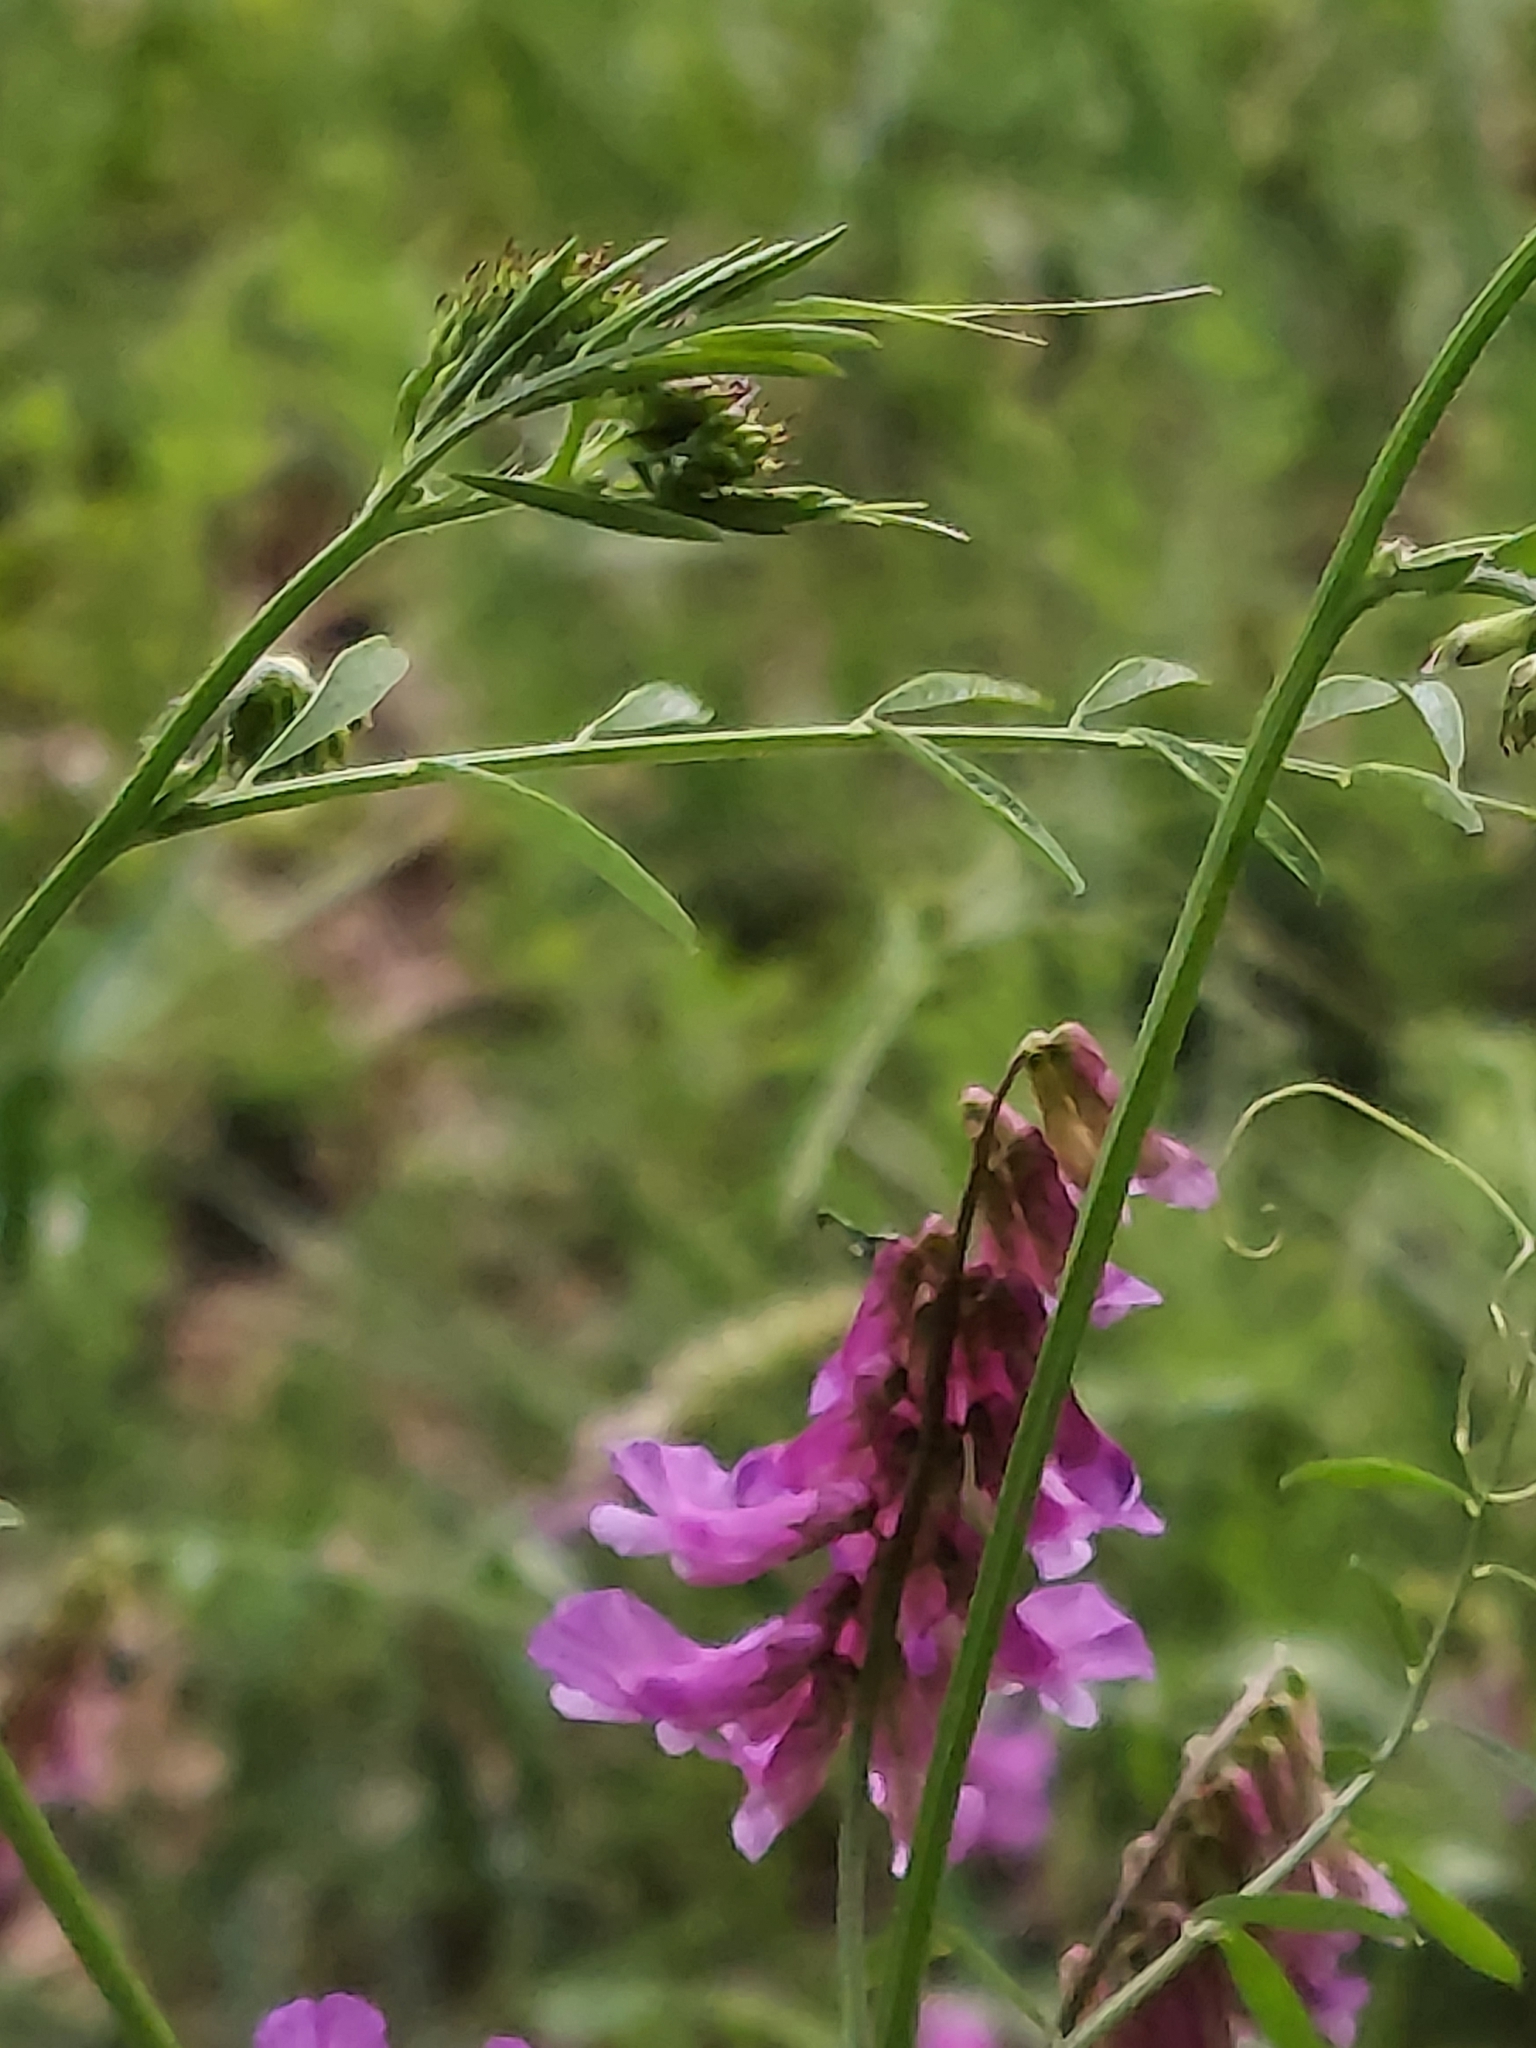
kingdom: Plantae
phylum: Tracheophyta
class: Magnoliopsida
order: Fabales
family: Fabaceae
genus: Vicia
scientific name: Vicia villosa
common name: Fodder vetch
